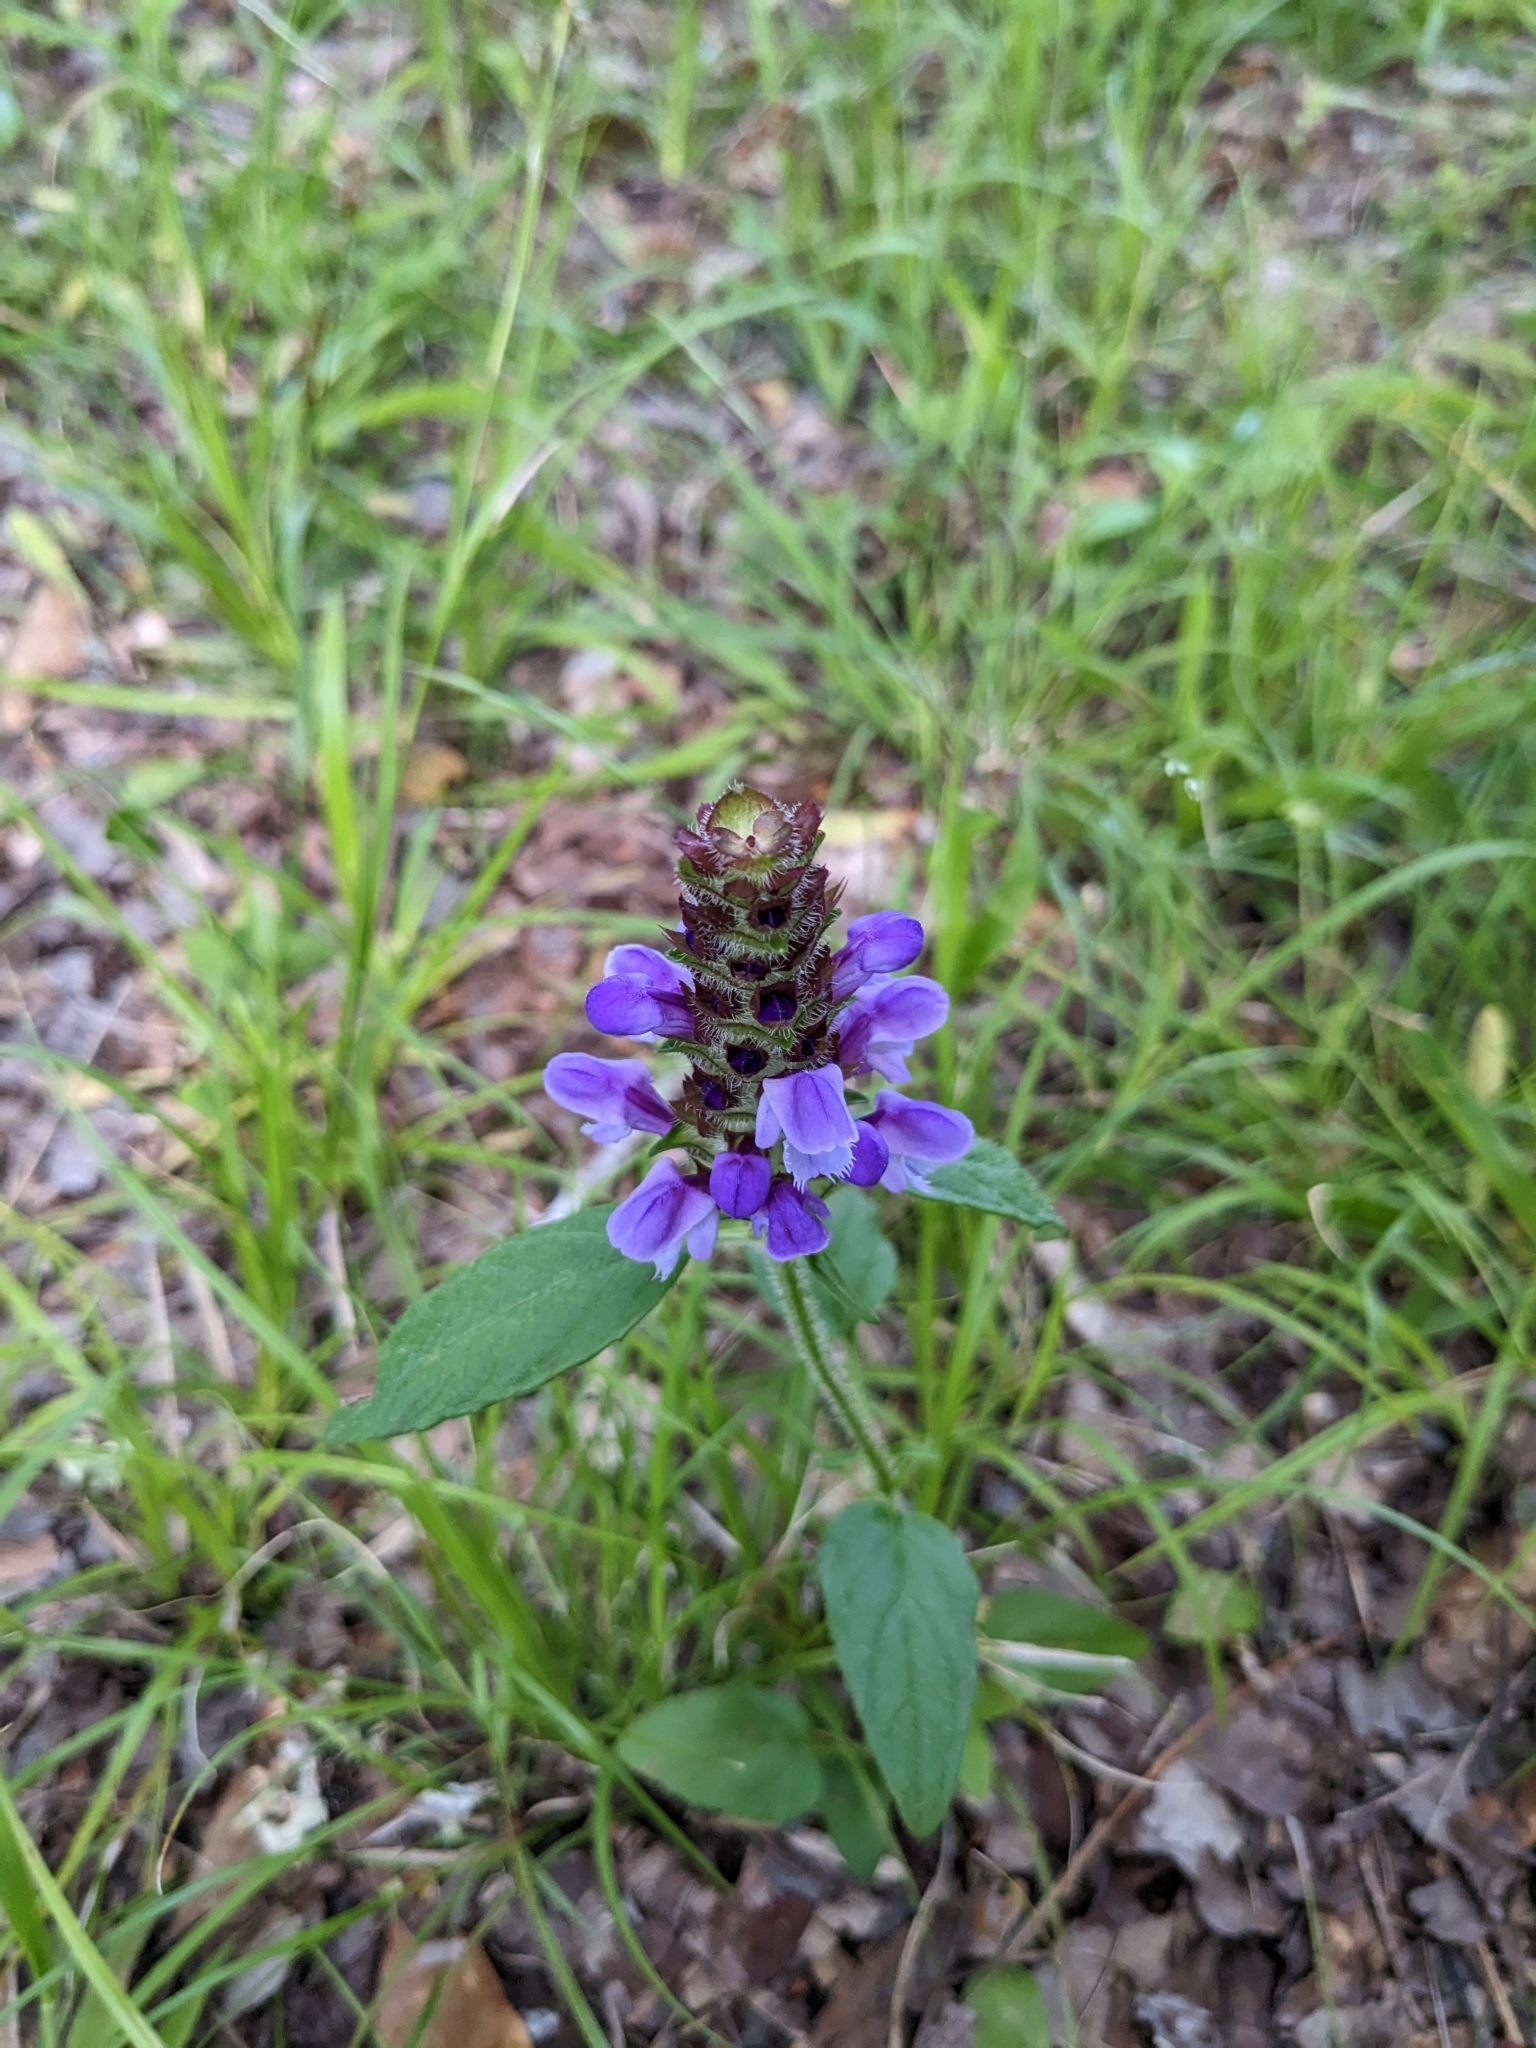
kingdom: Plantae
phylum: Tracheophyta
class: Magnoliopsida
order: Lamiales
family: Lamiaceae
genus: Prunella
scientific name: Prunella vulgaris
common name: Heal-all
